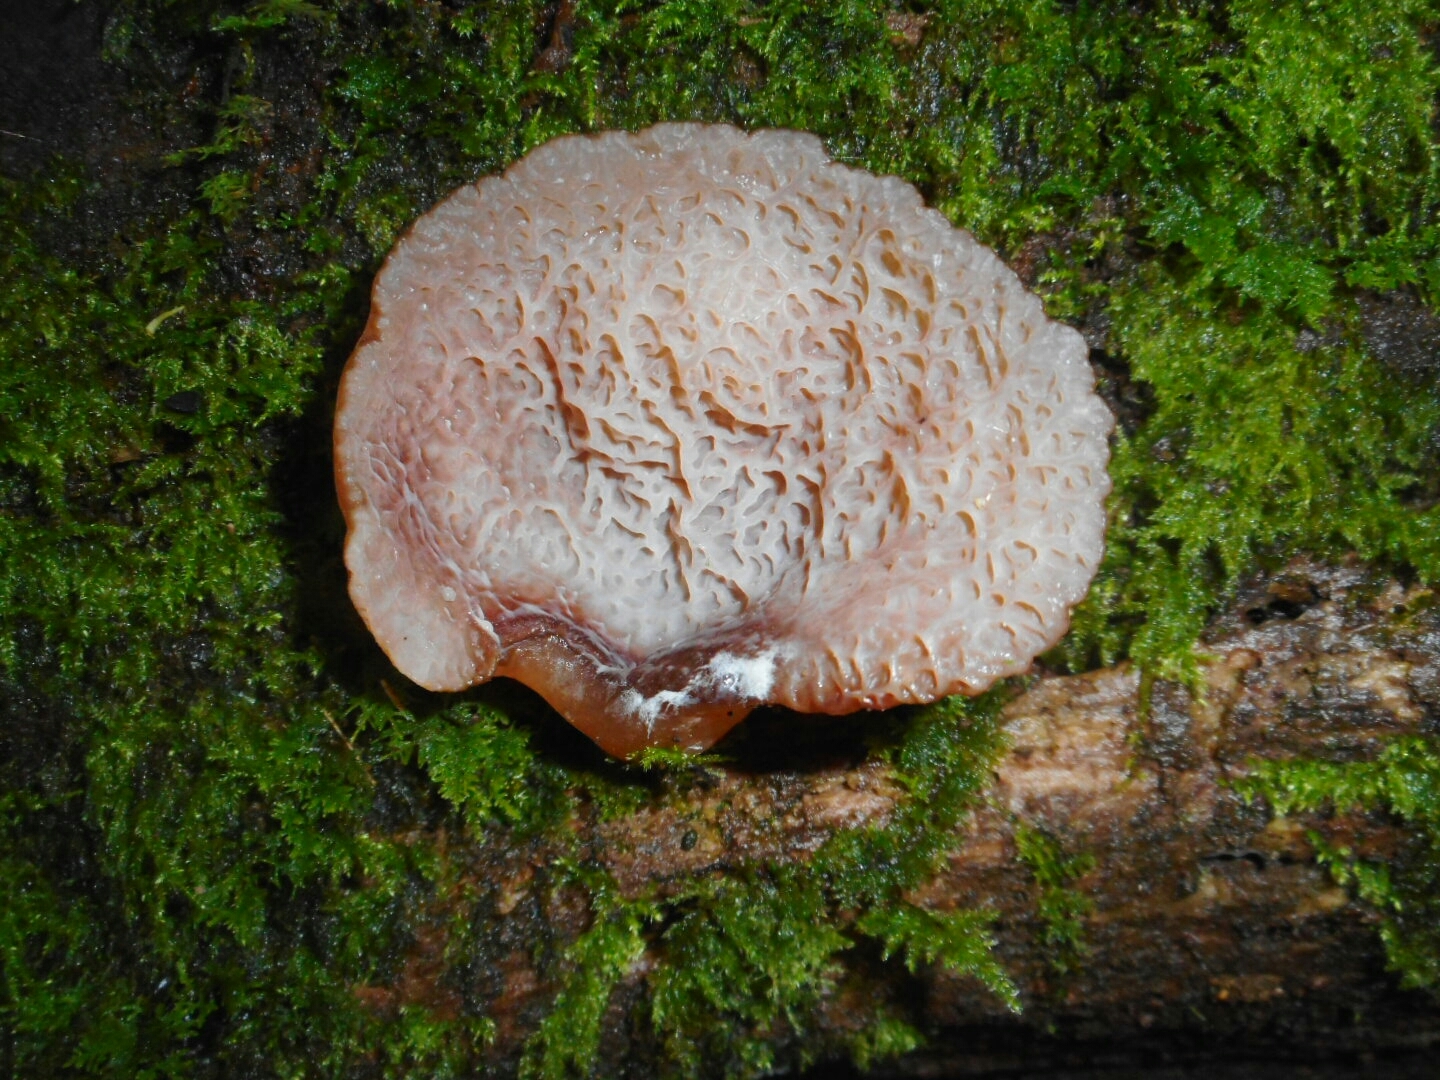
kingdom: Fungi
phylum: Basidiomycota
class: Agaricomycetes
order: Auriculariales
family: Auriculariaceae
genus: Auricularia
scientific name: Auricularia delicata
